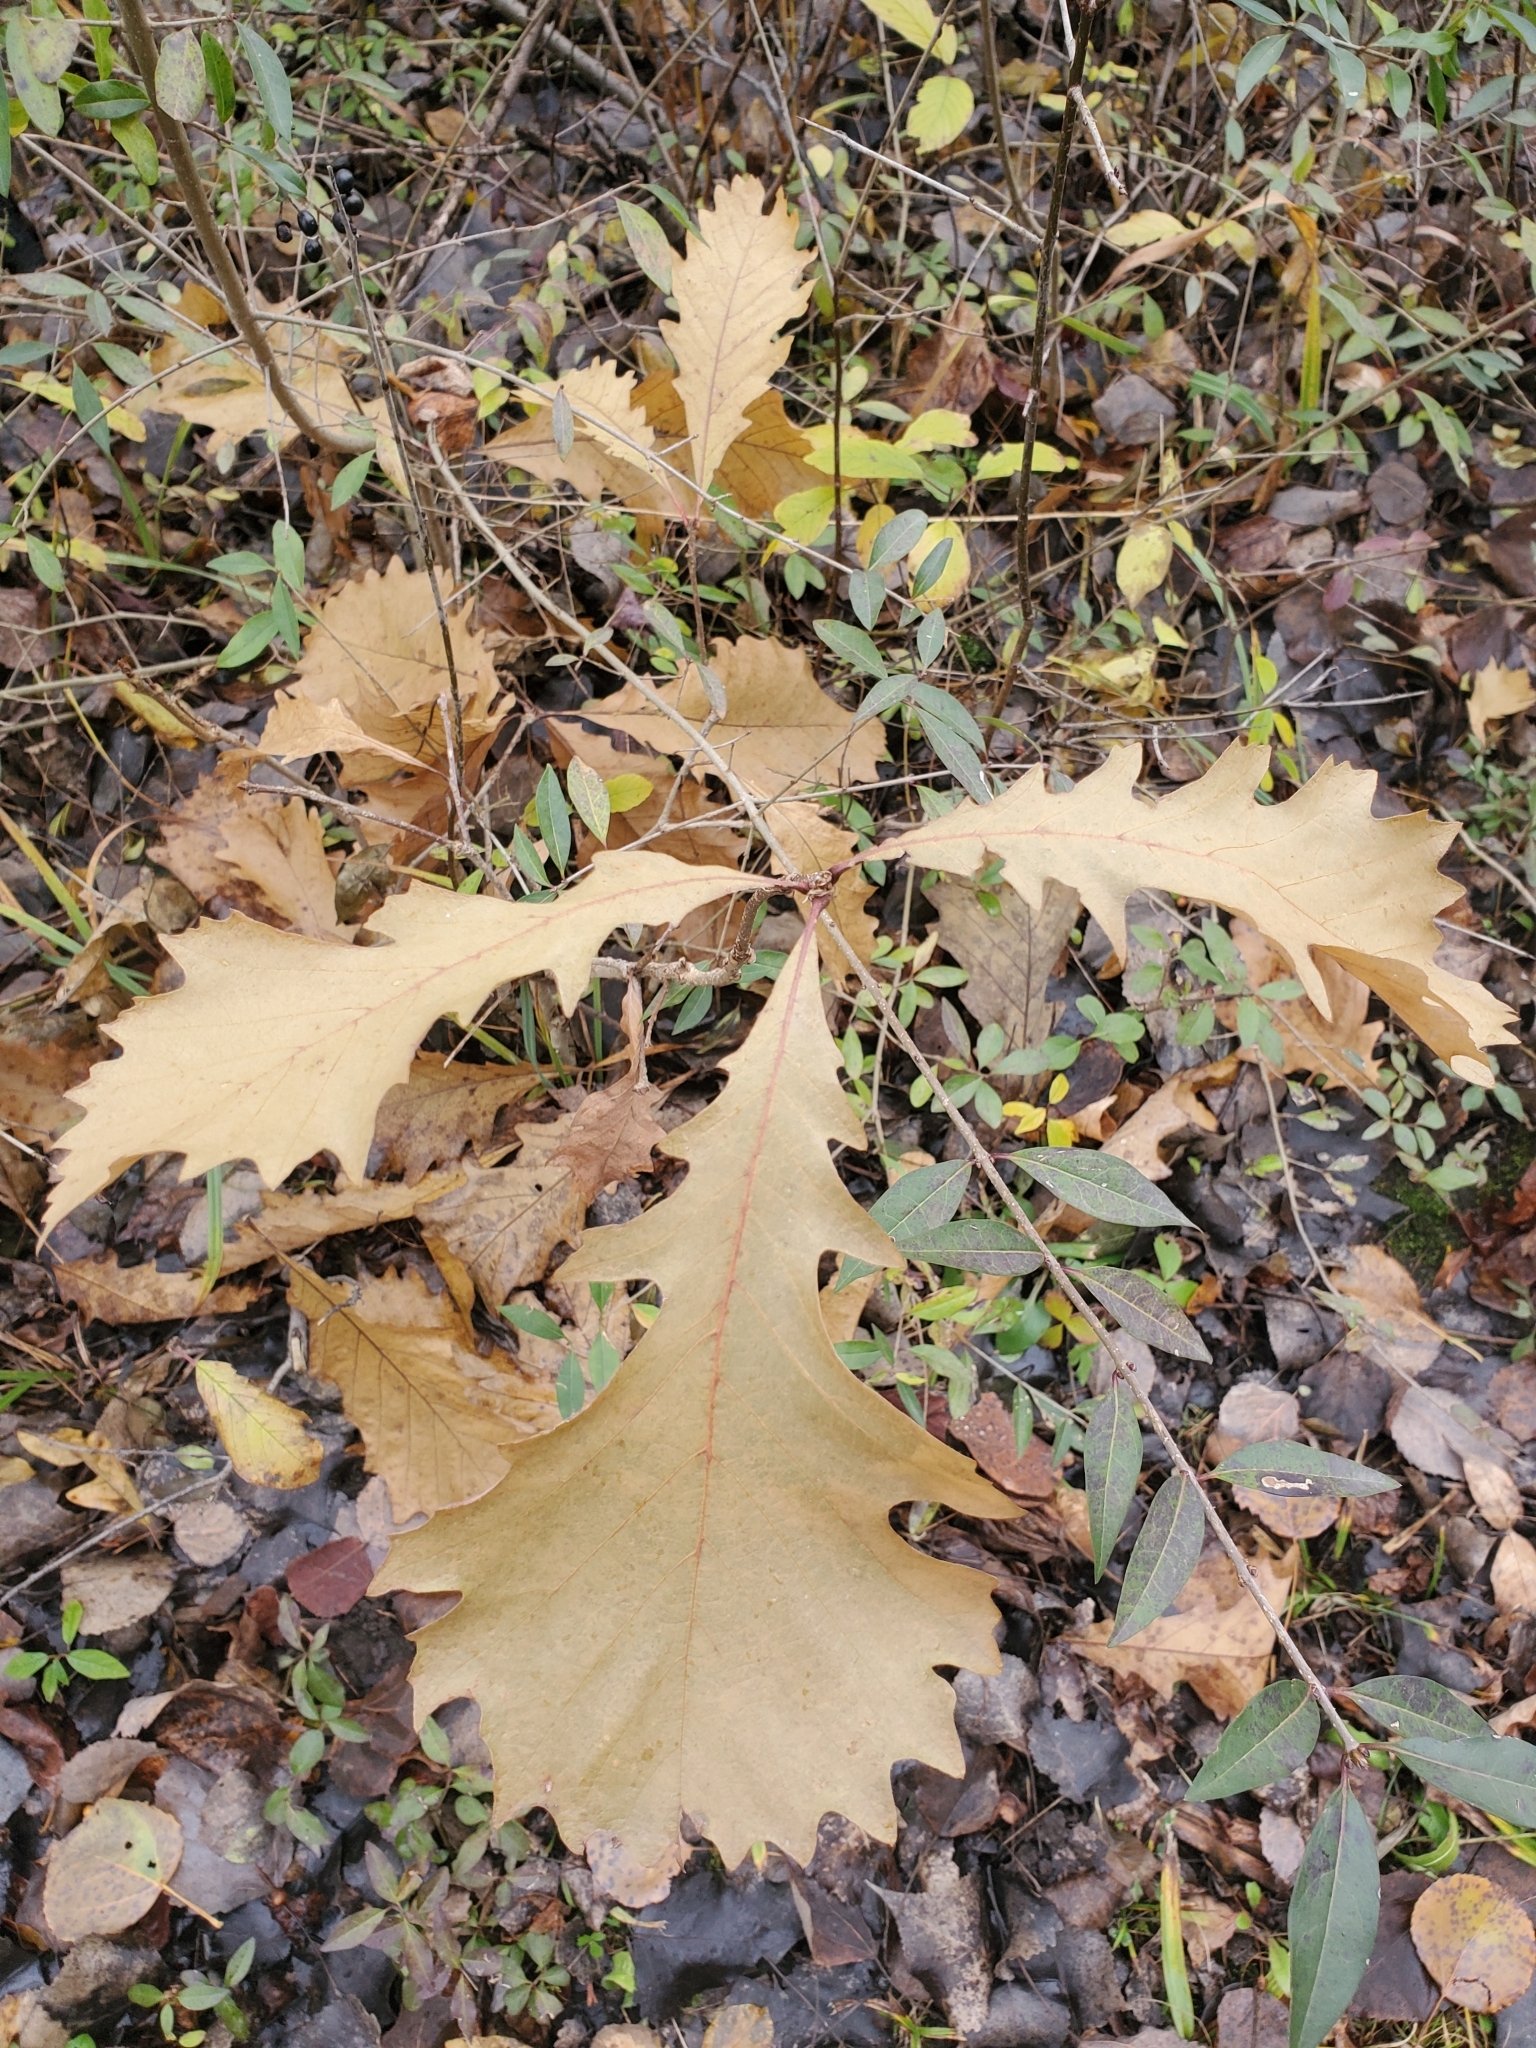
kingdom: Plantae
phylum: Tracheophyta
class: Magnoliopsida
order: Fagales
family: Fagaceae
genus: Quercus
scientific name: Quercus macrocarpa
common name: Bur oak
